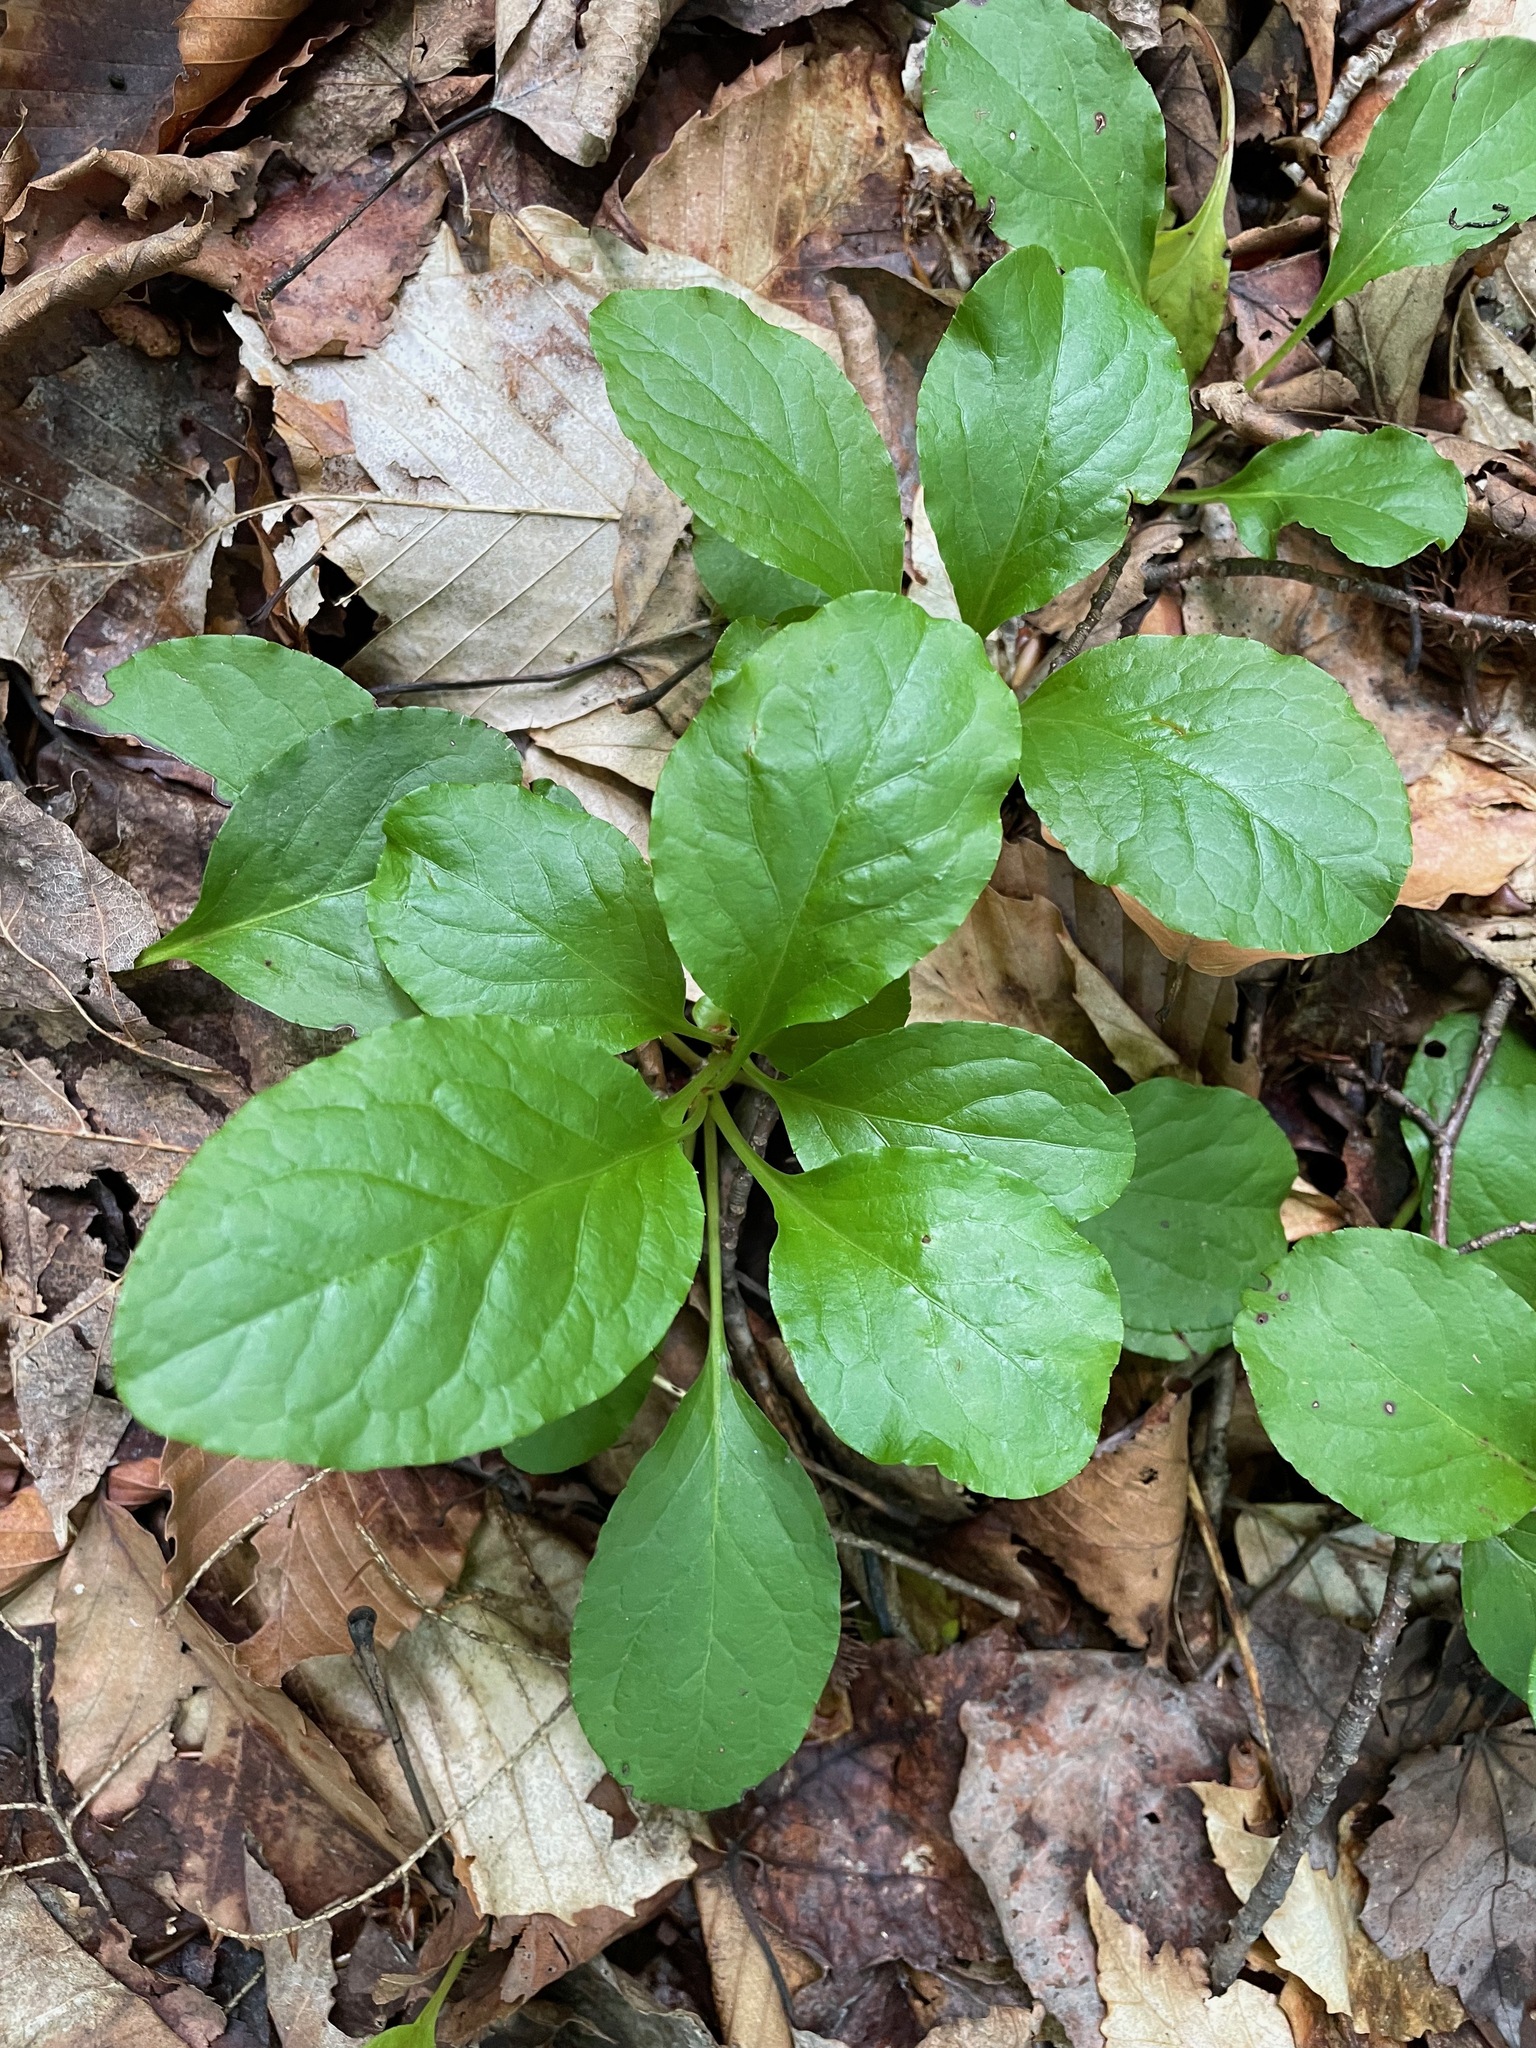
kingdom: Plantae
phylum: Tracheophyta
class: Magnoliopsida
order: Ericales
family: Ericaceae
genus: Pyrola
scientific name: Pyrola elliptica
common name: Shinleaf
